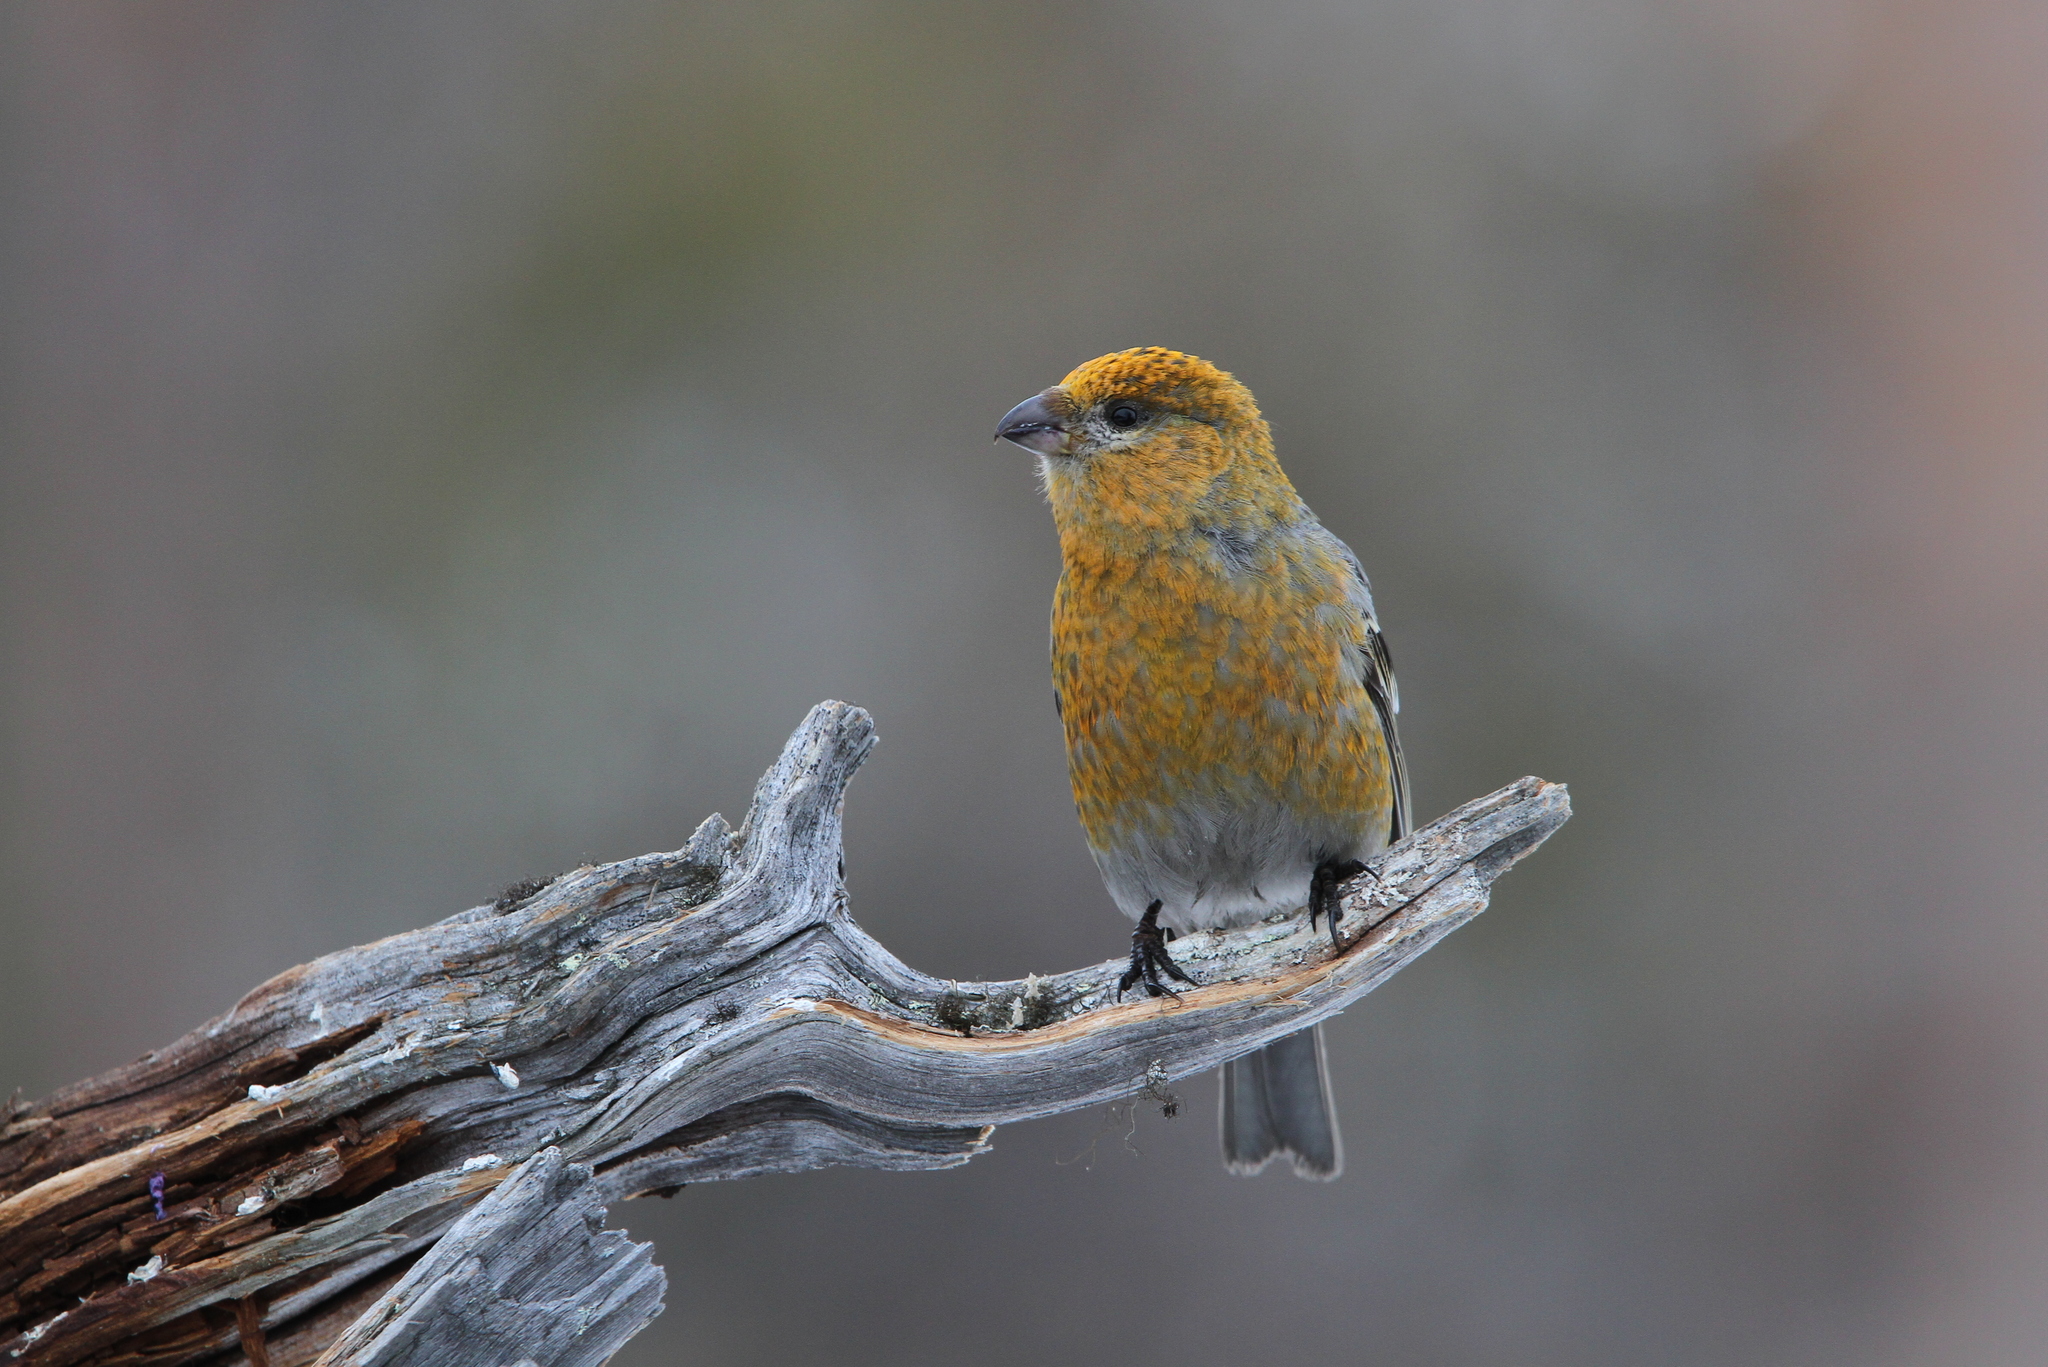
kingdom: Animalia
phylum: Chordata
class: Aves
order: Passeriformes
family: Fringillidae
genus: Pinicola
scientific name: Pinicola enucleator
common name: Pine grosbeak
